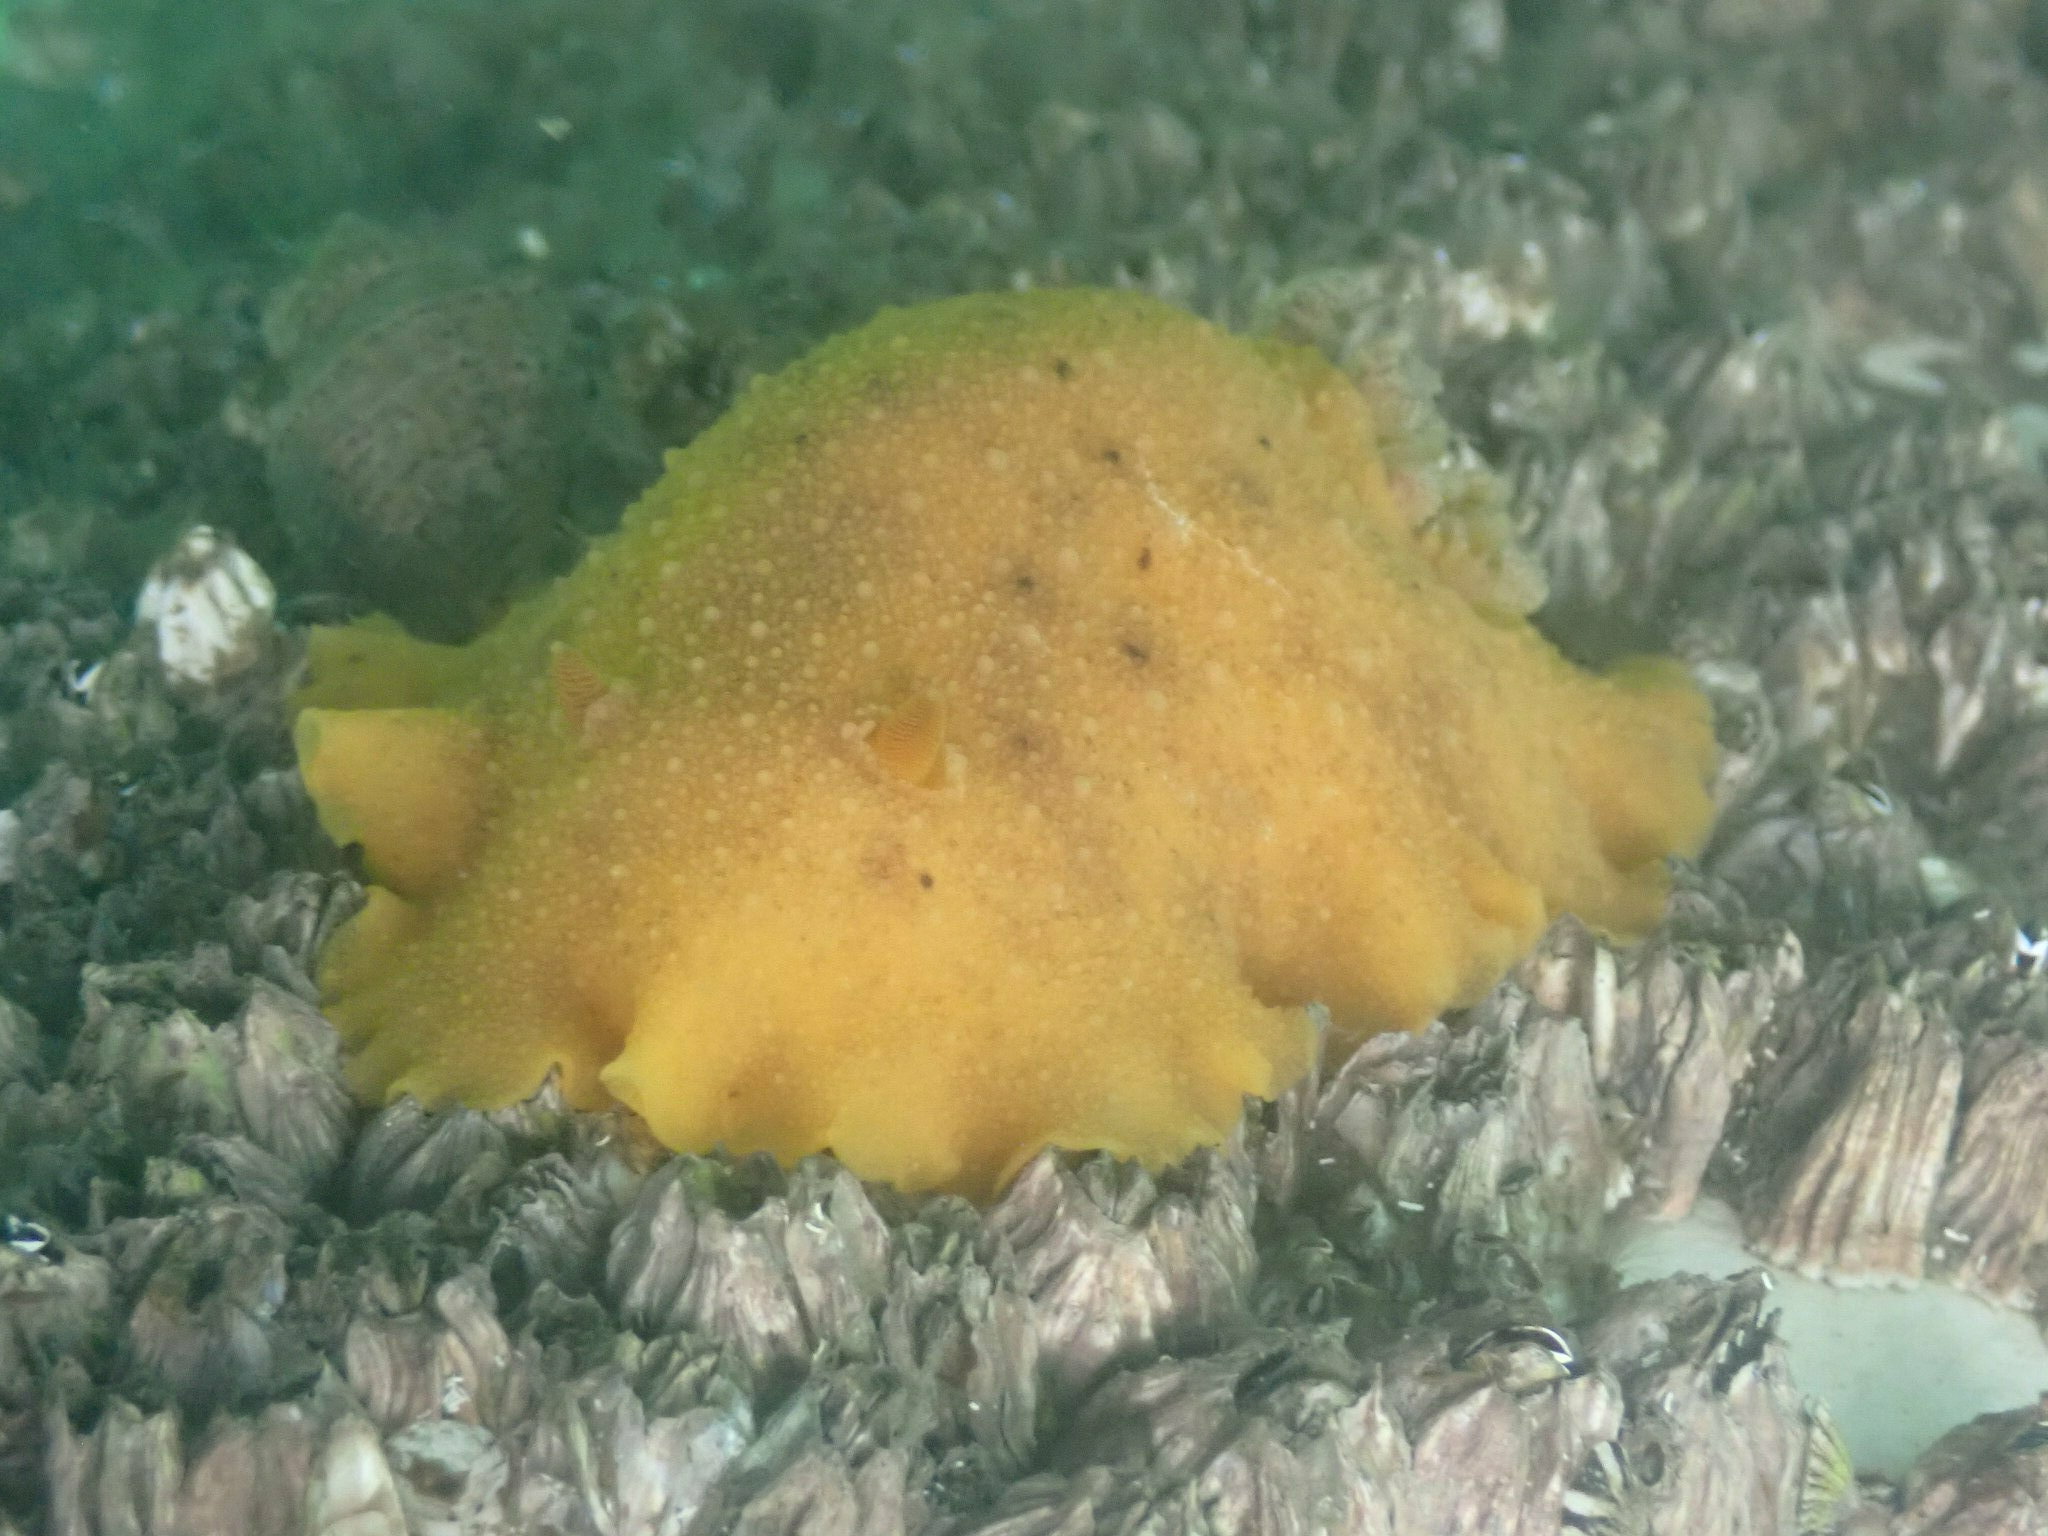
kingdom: Animalia
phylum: Mollusca
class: Gastropoda
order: Nudibranchia
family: Discodorididae
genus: Geitodoris
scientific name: Geitodoris heathi
